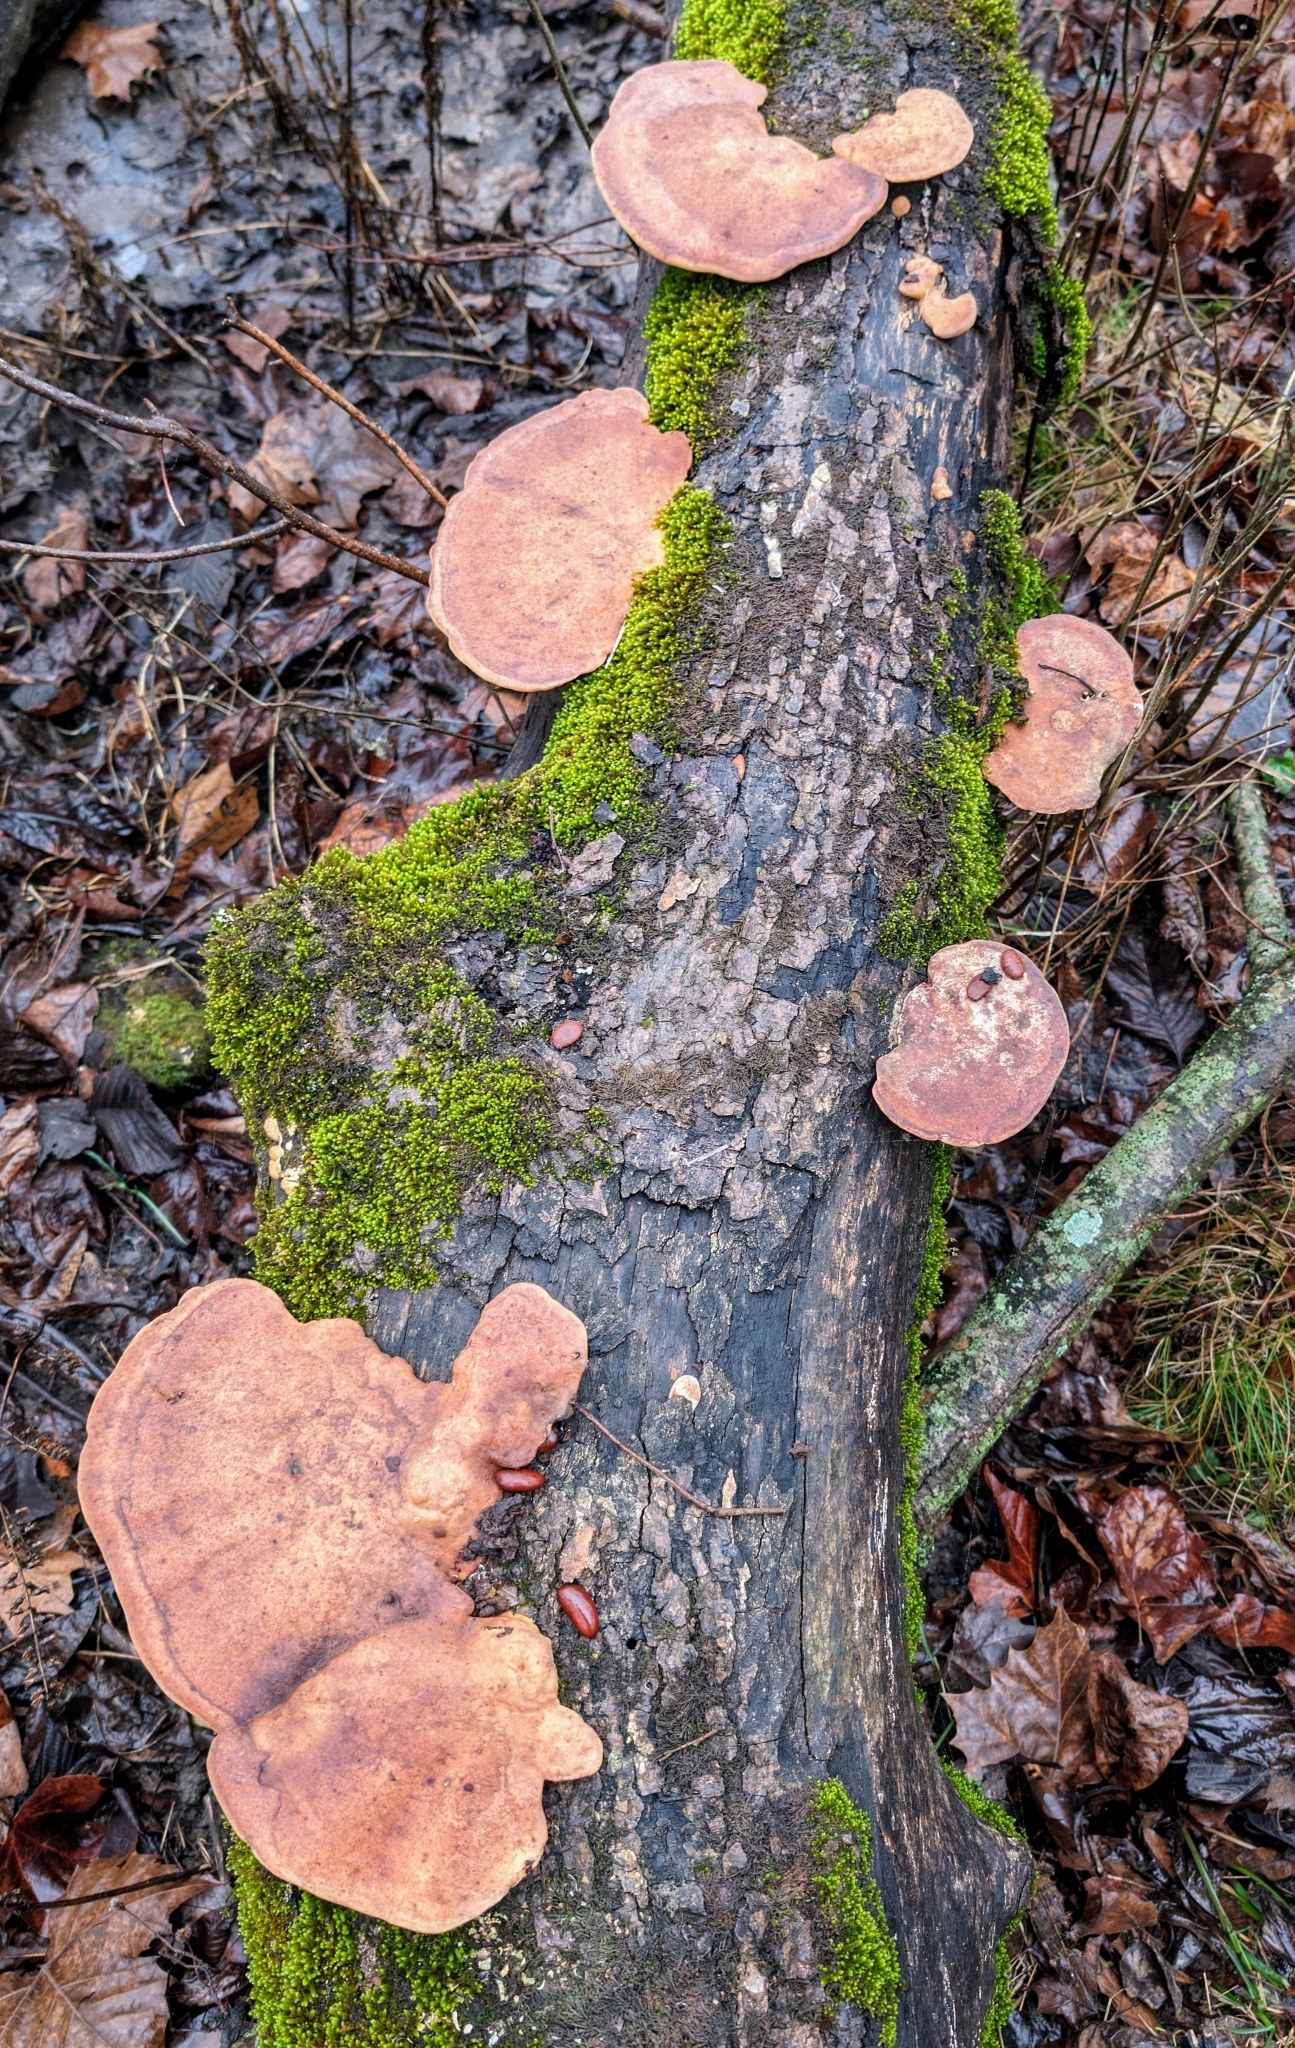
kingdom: Fungi
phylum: Basidiomycota
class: Agaricomycetes
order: Polyporales
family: Polyporaceae
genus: Trametes
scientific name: Trametes
